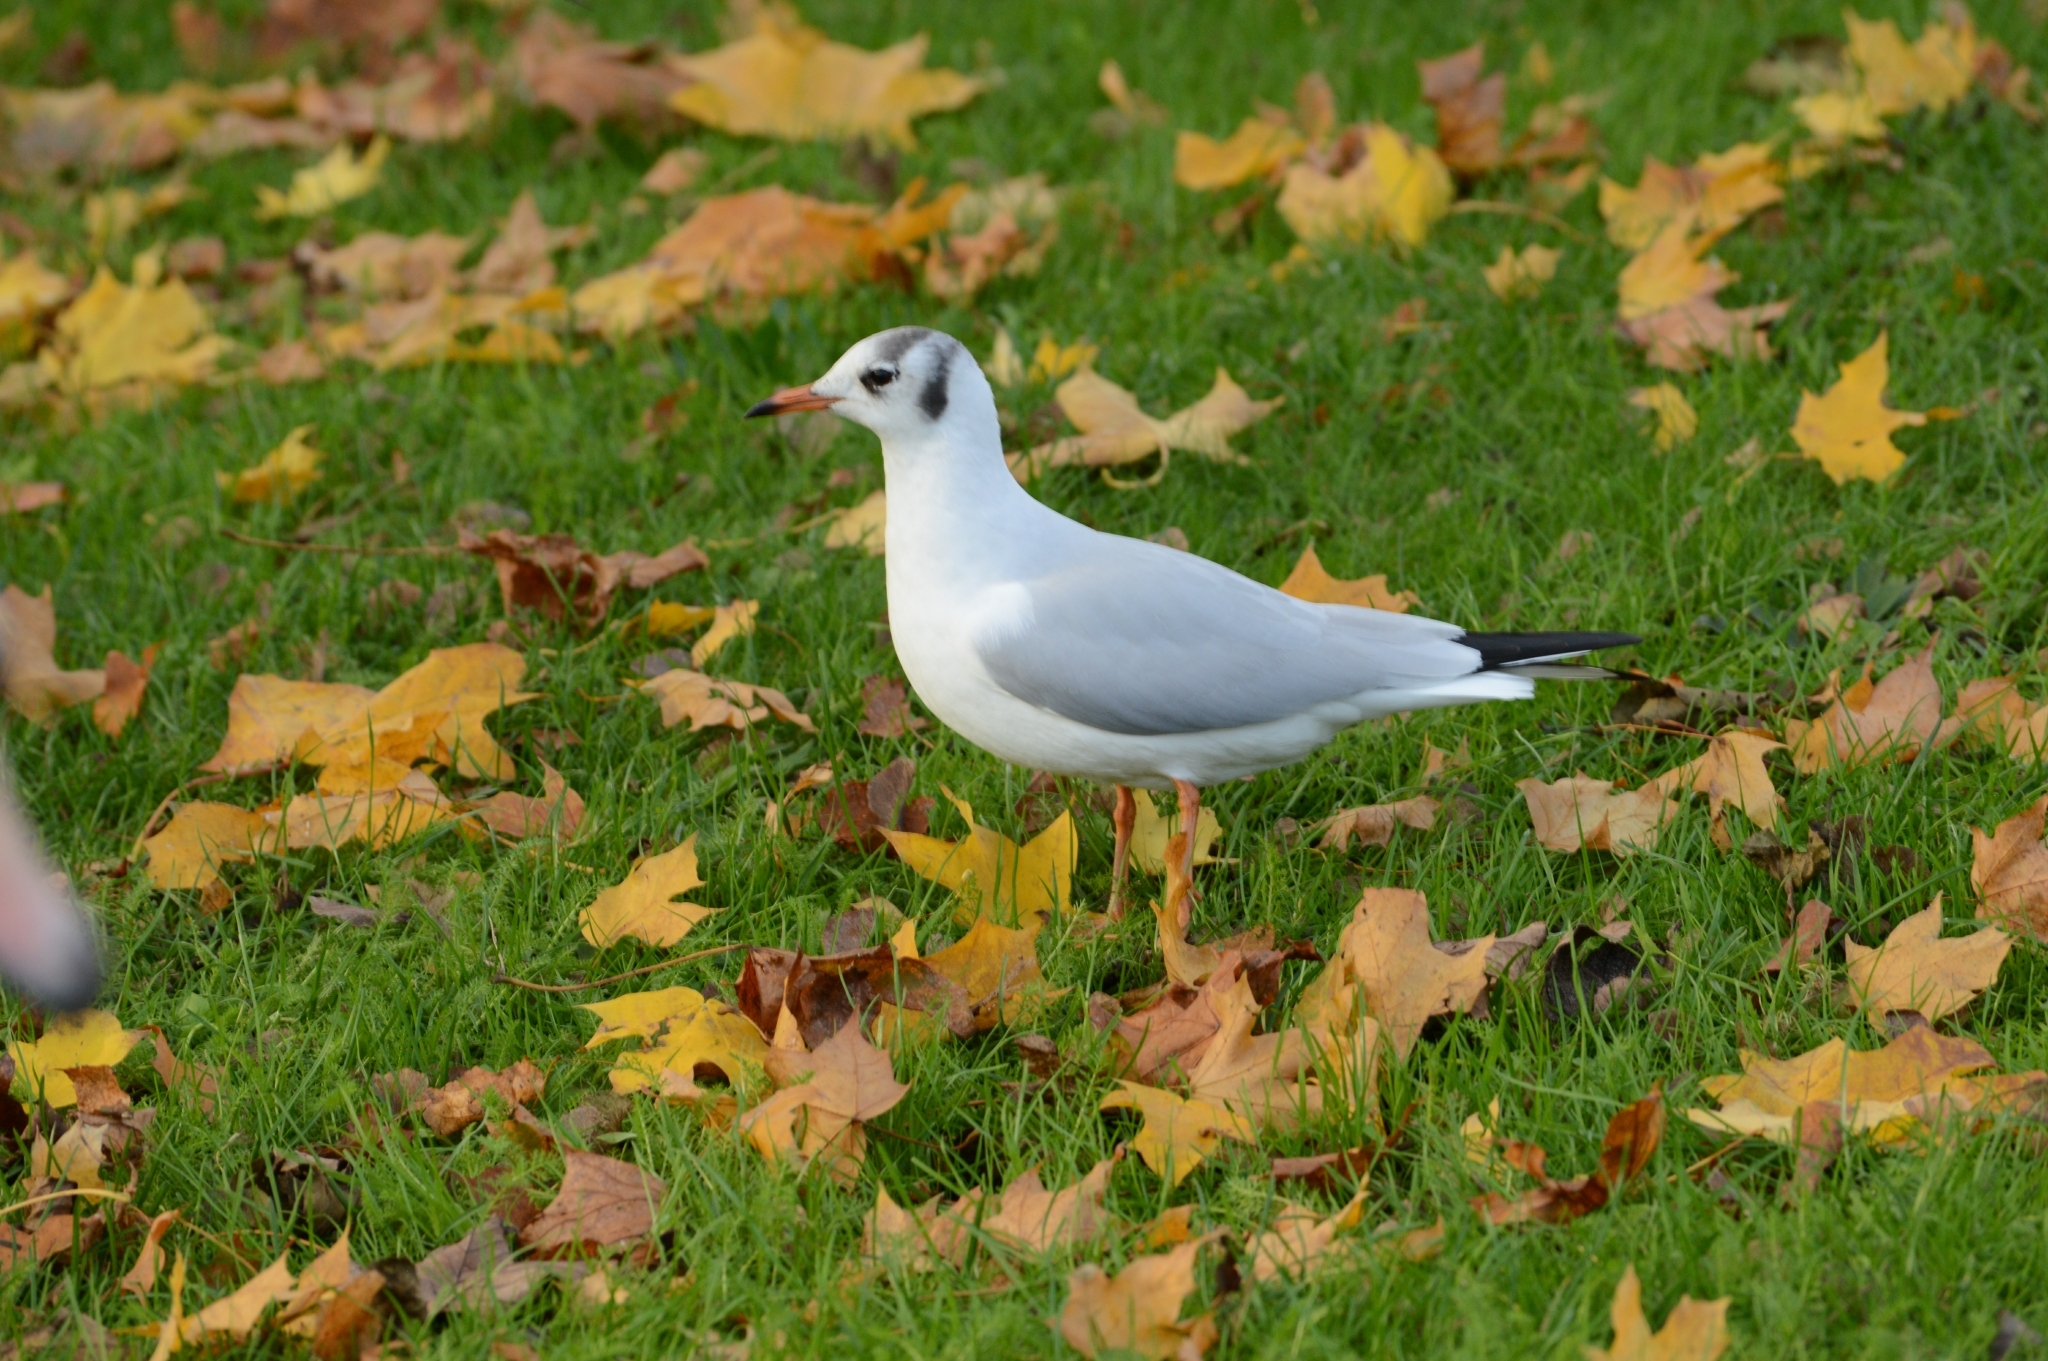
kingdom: Animalia
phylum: Chordata
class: Aves
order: Charadriiformes
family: Laridae
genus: Chroicocephalus
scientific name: Chroicocephalus ridibundus
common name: Black-headed gull
